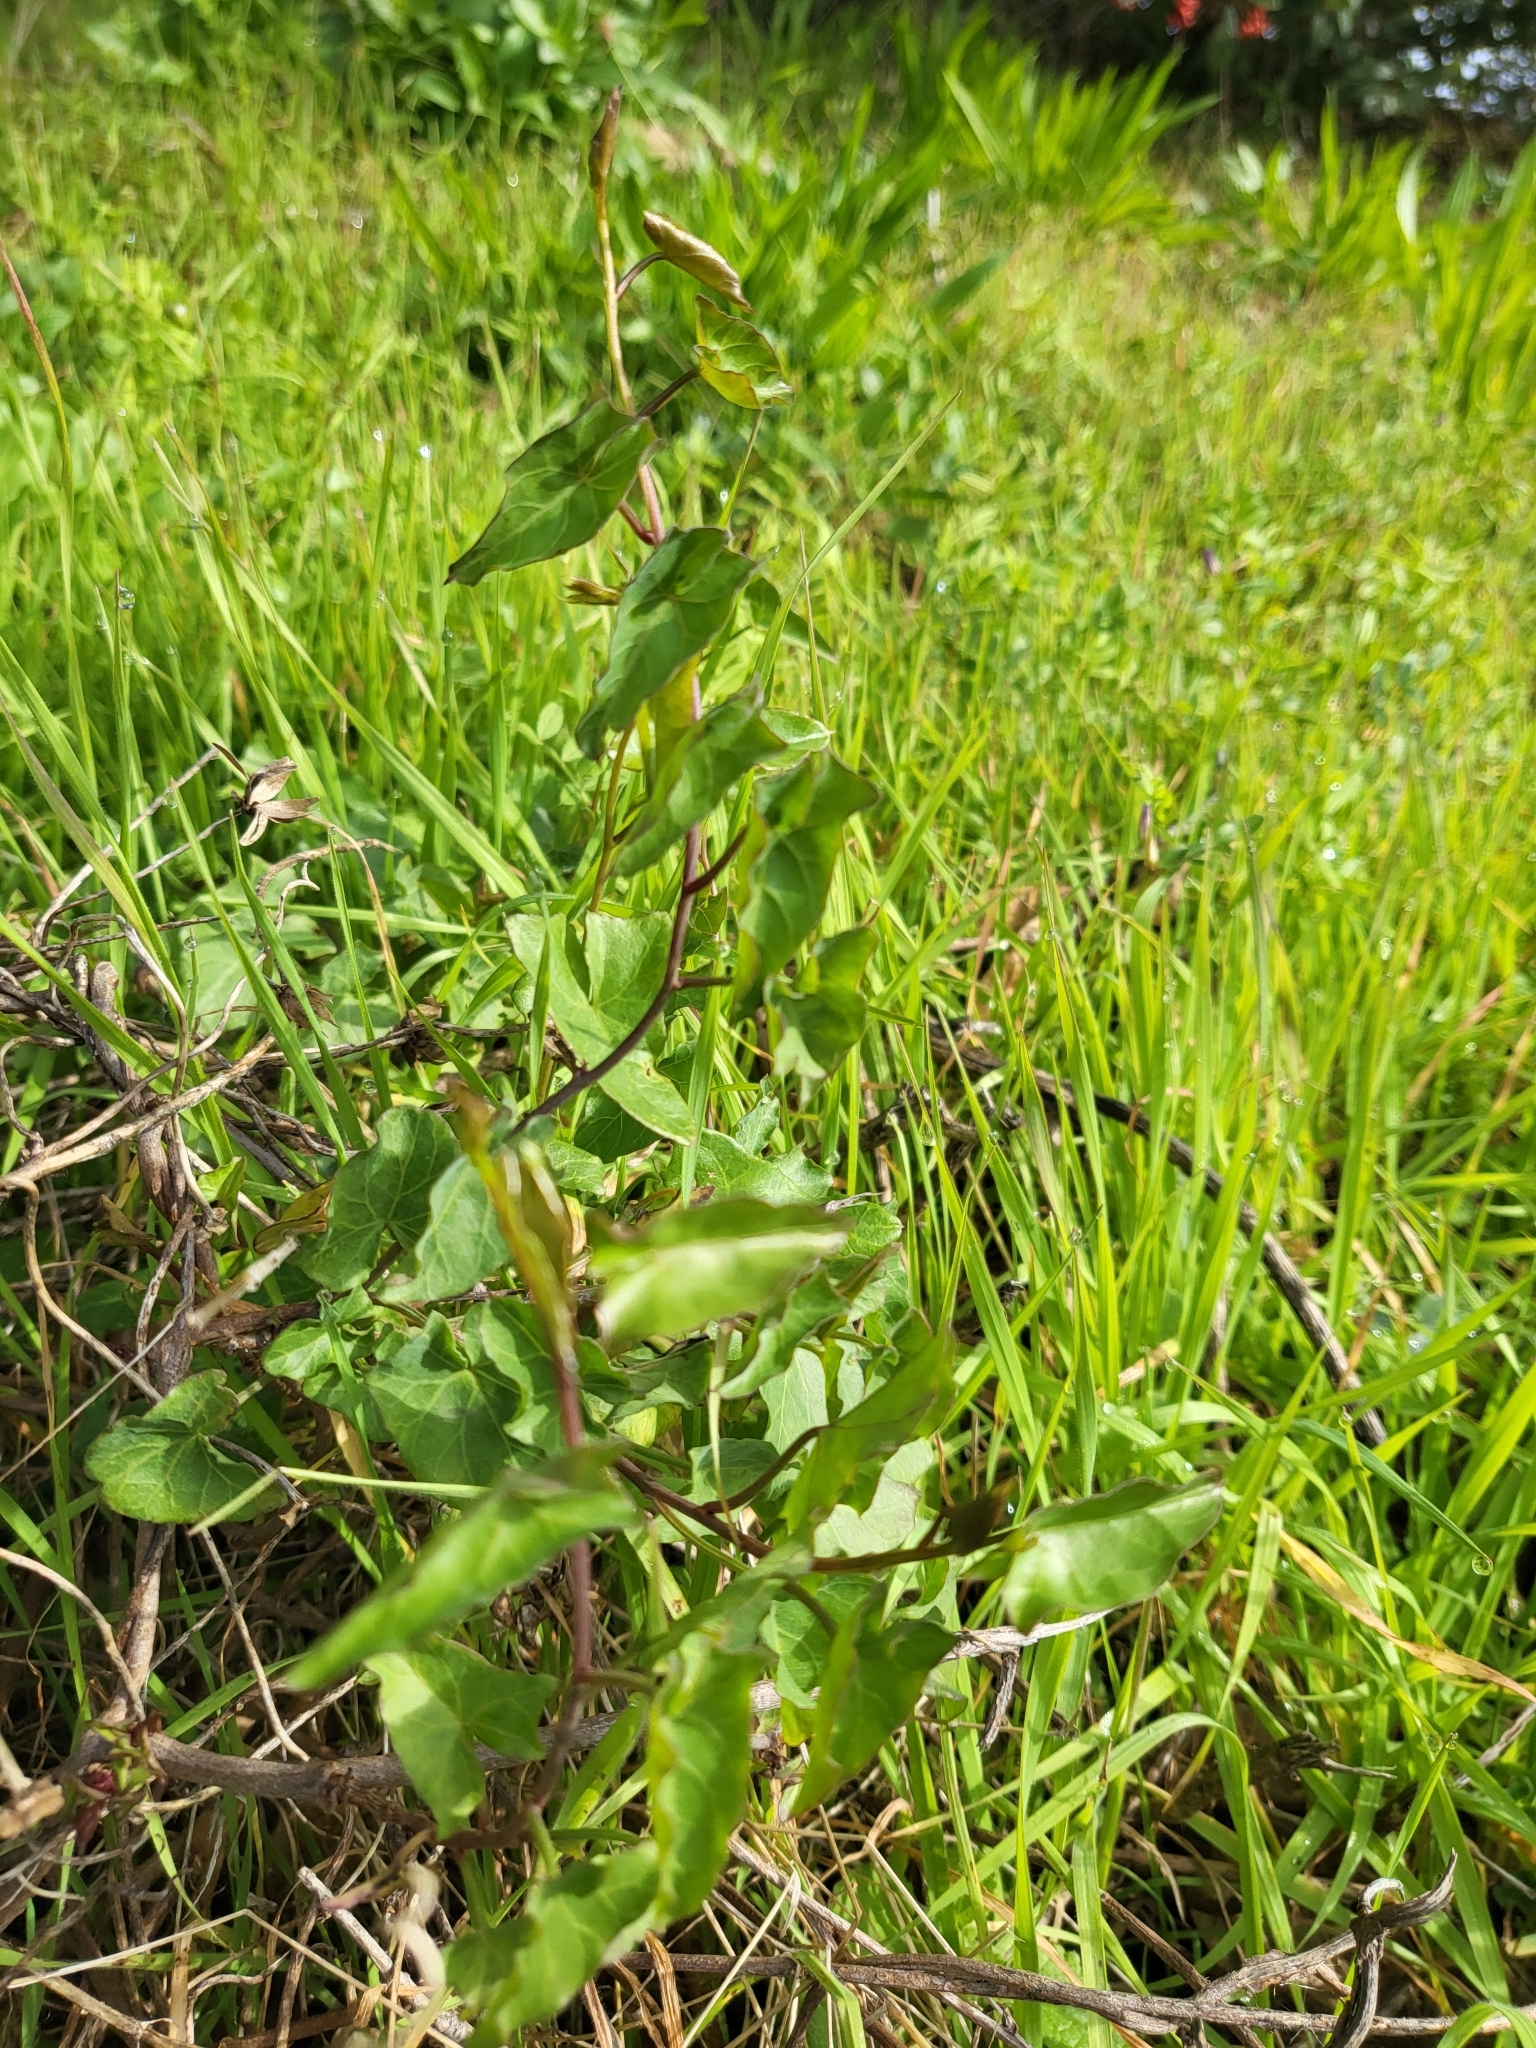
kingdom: Plantae
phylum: Tracheophyta
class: Magnoliopsida
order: Solanales
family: Convolvulaceae
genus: Calystegia
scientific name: Calystegia purpurata
